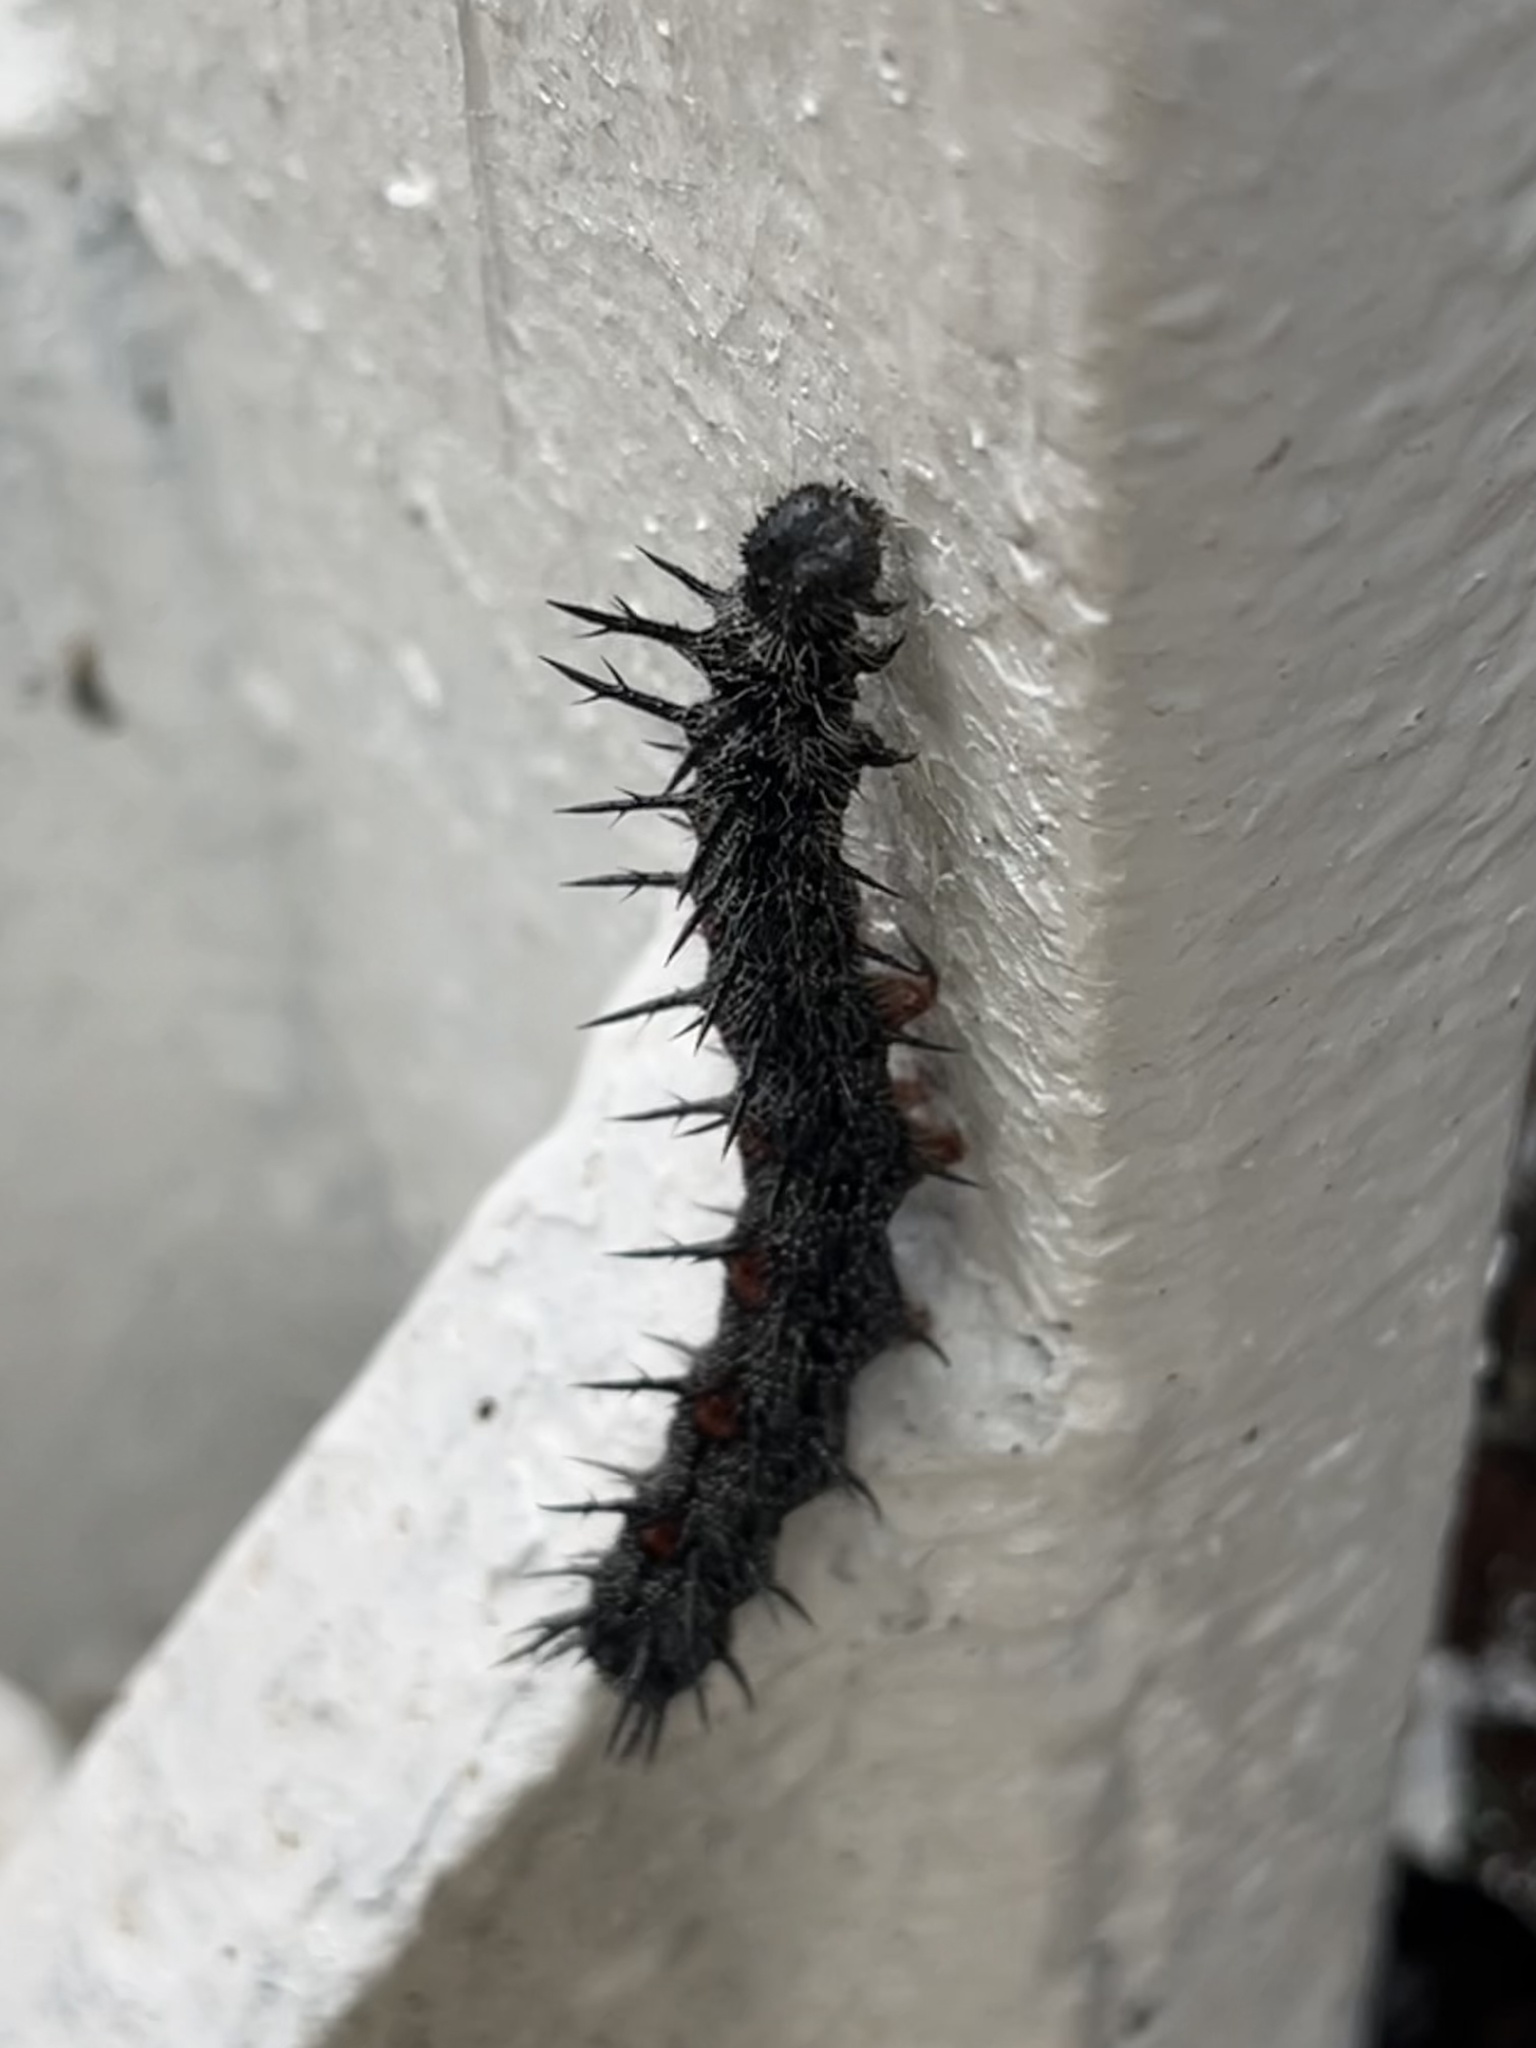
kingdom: Animalia
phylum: Arthropoda
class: Insecta
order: Lepidoptera
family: Nymphalidae
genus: Nymphalis
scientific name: Nymphalis antiopa
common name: Camberwell beauty
